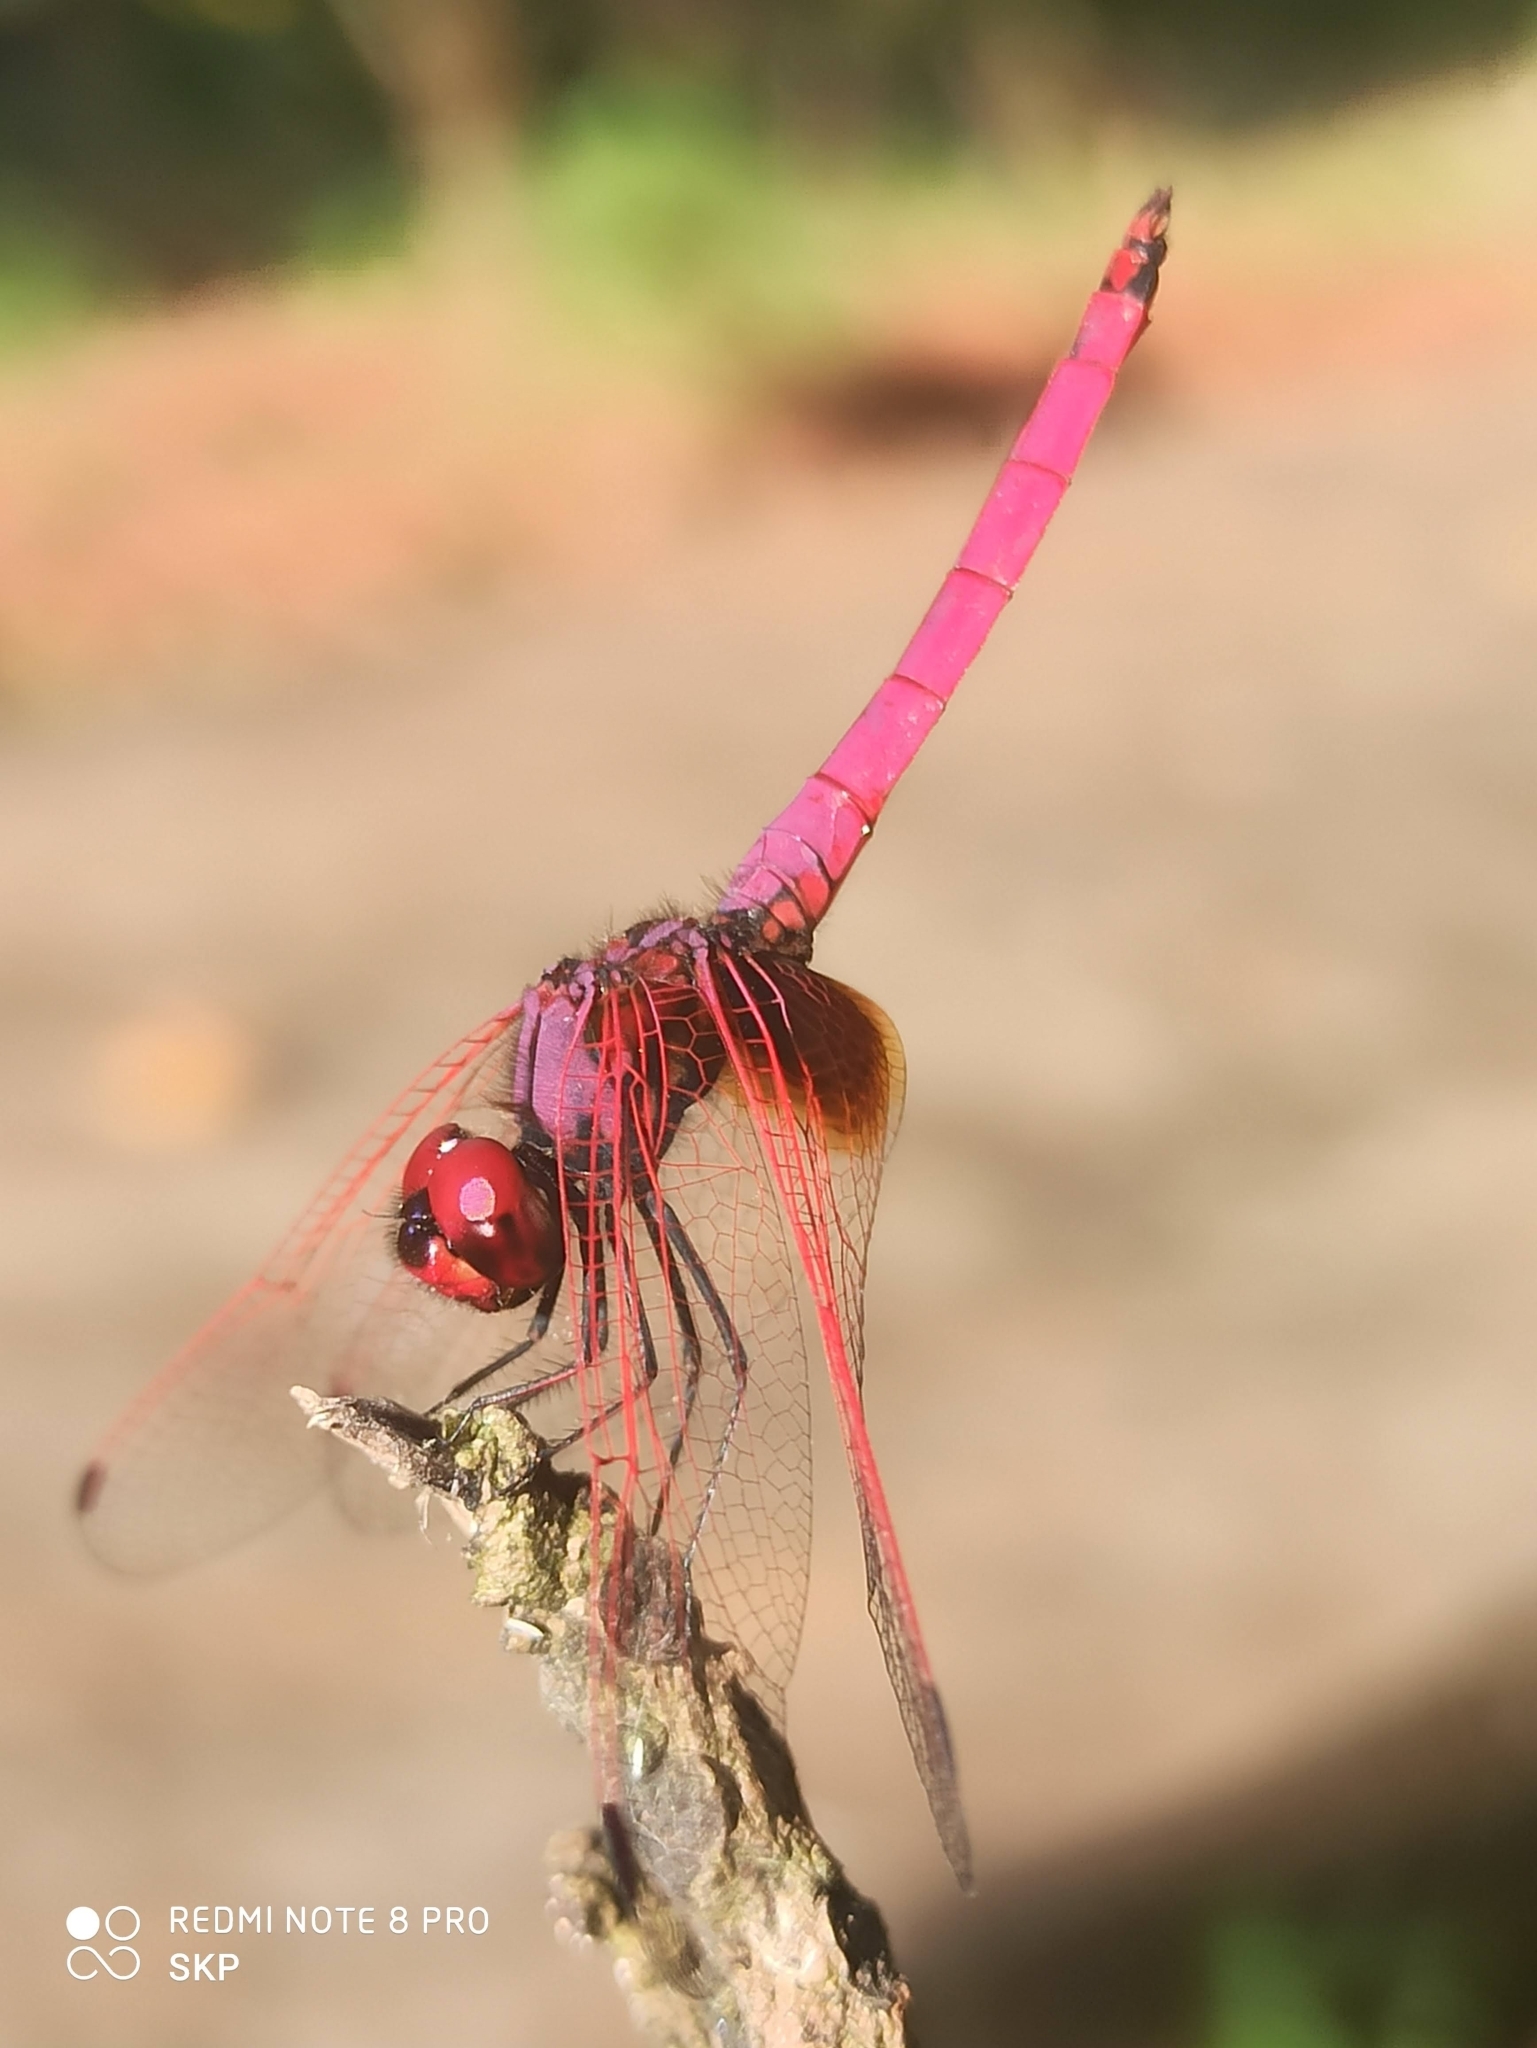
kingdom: Animalia
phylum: Arthropoda
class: Insecta
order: Odonata
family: Libellulidae
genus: Trithemis
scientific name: Trithemis aurora
